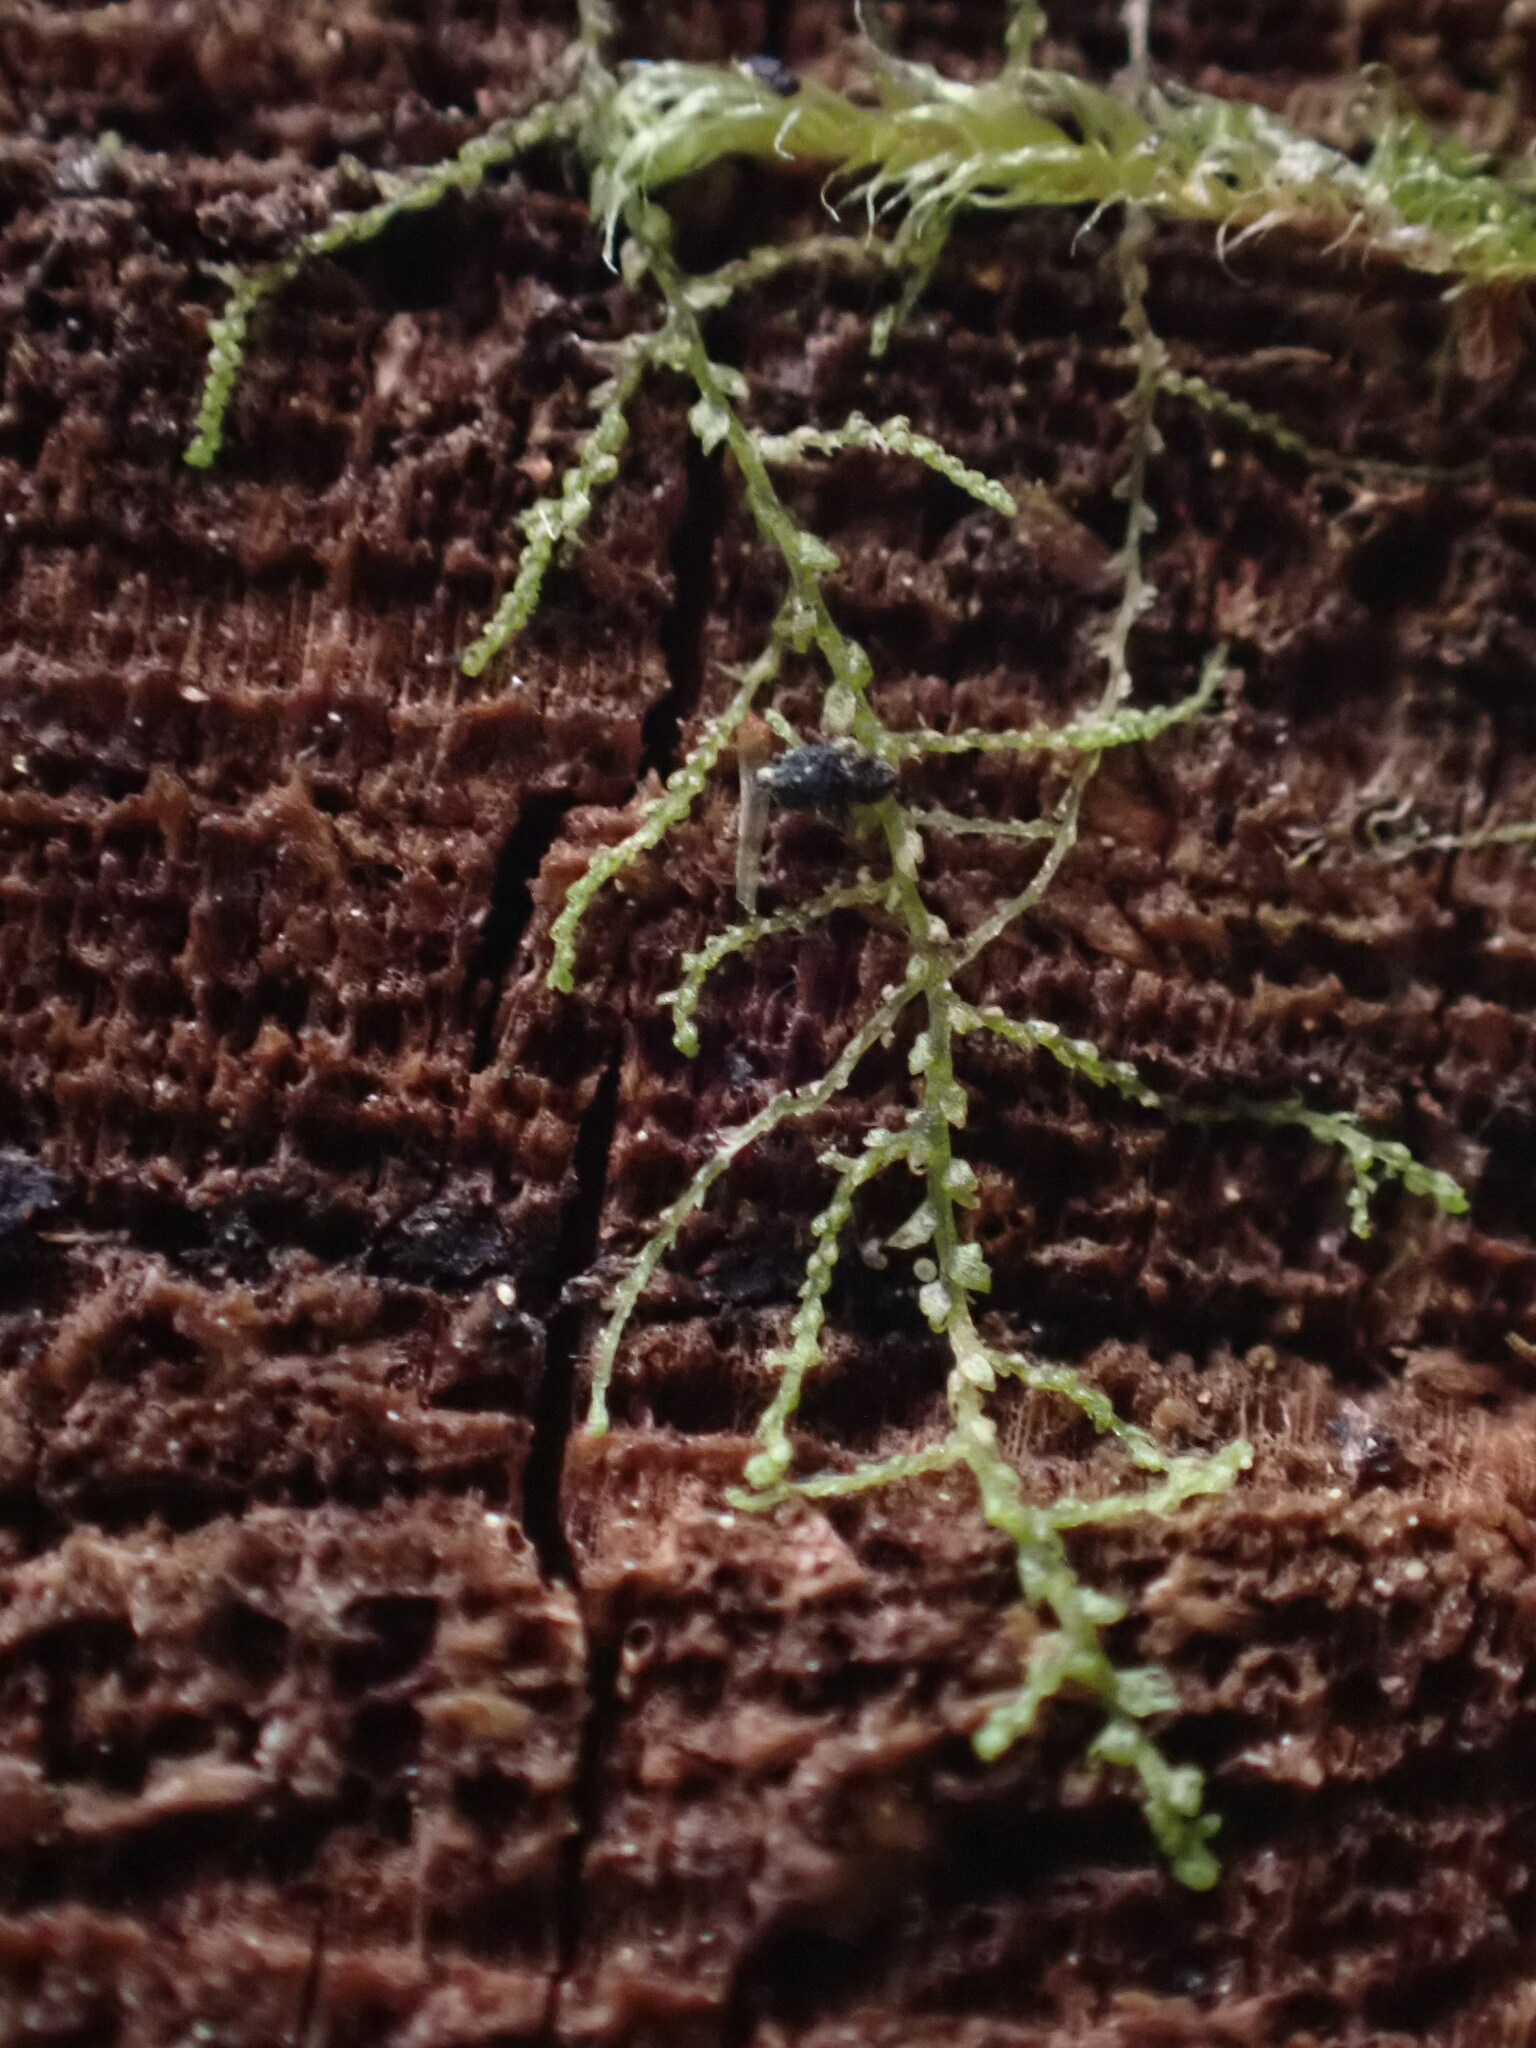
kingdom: Plantae
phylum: Marchantiophyta
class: Jungermanniopsida
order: Jungermanniales
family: Lepidoziaceae
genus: Lepidozia
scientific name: Lepidozia reptans
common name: Creeping fingerwort
